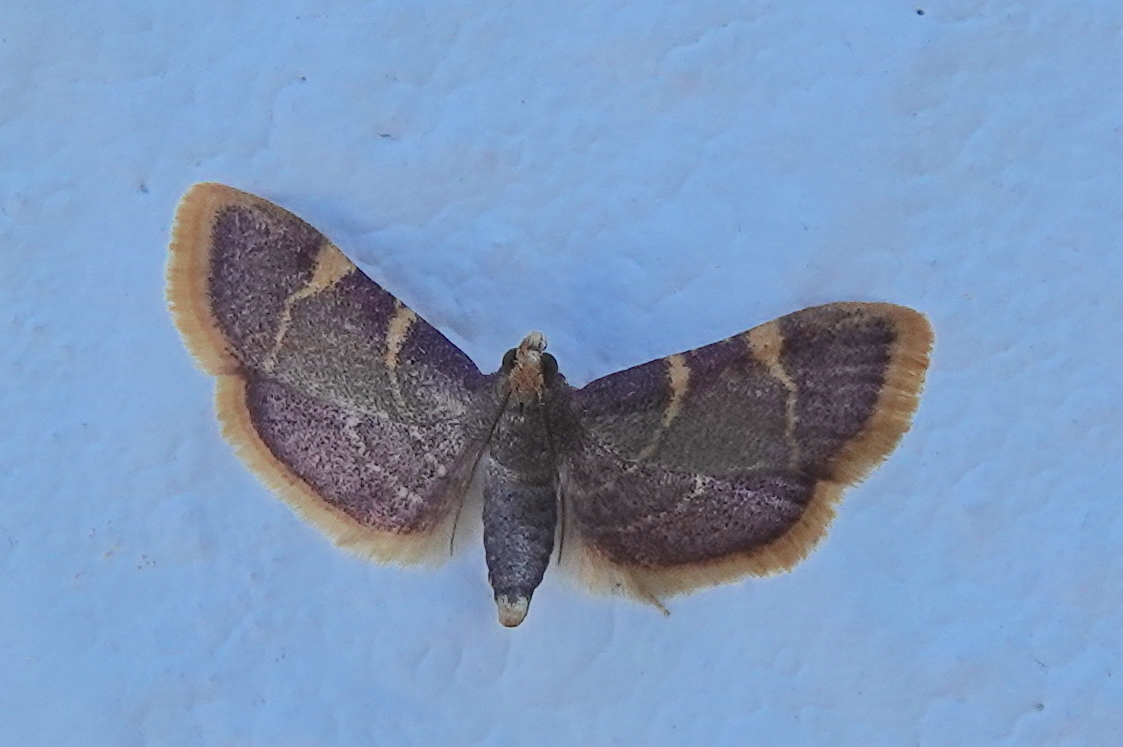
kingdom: Animalia
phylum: Arthropoda
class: Insecta
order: Lepidoptera
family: Pyralidae
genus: Hypsopygia
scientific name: Hypsopygia costalis
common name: Gold triangle
